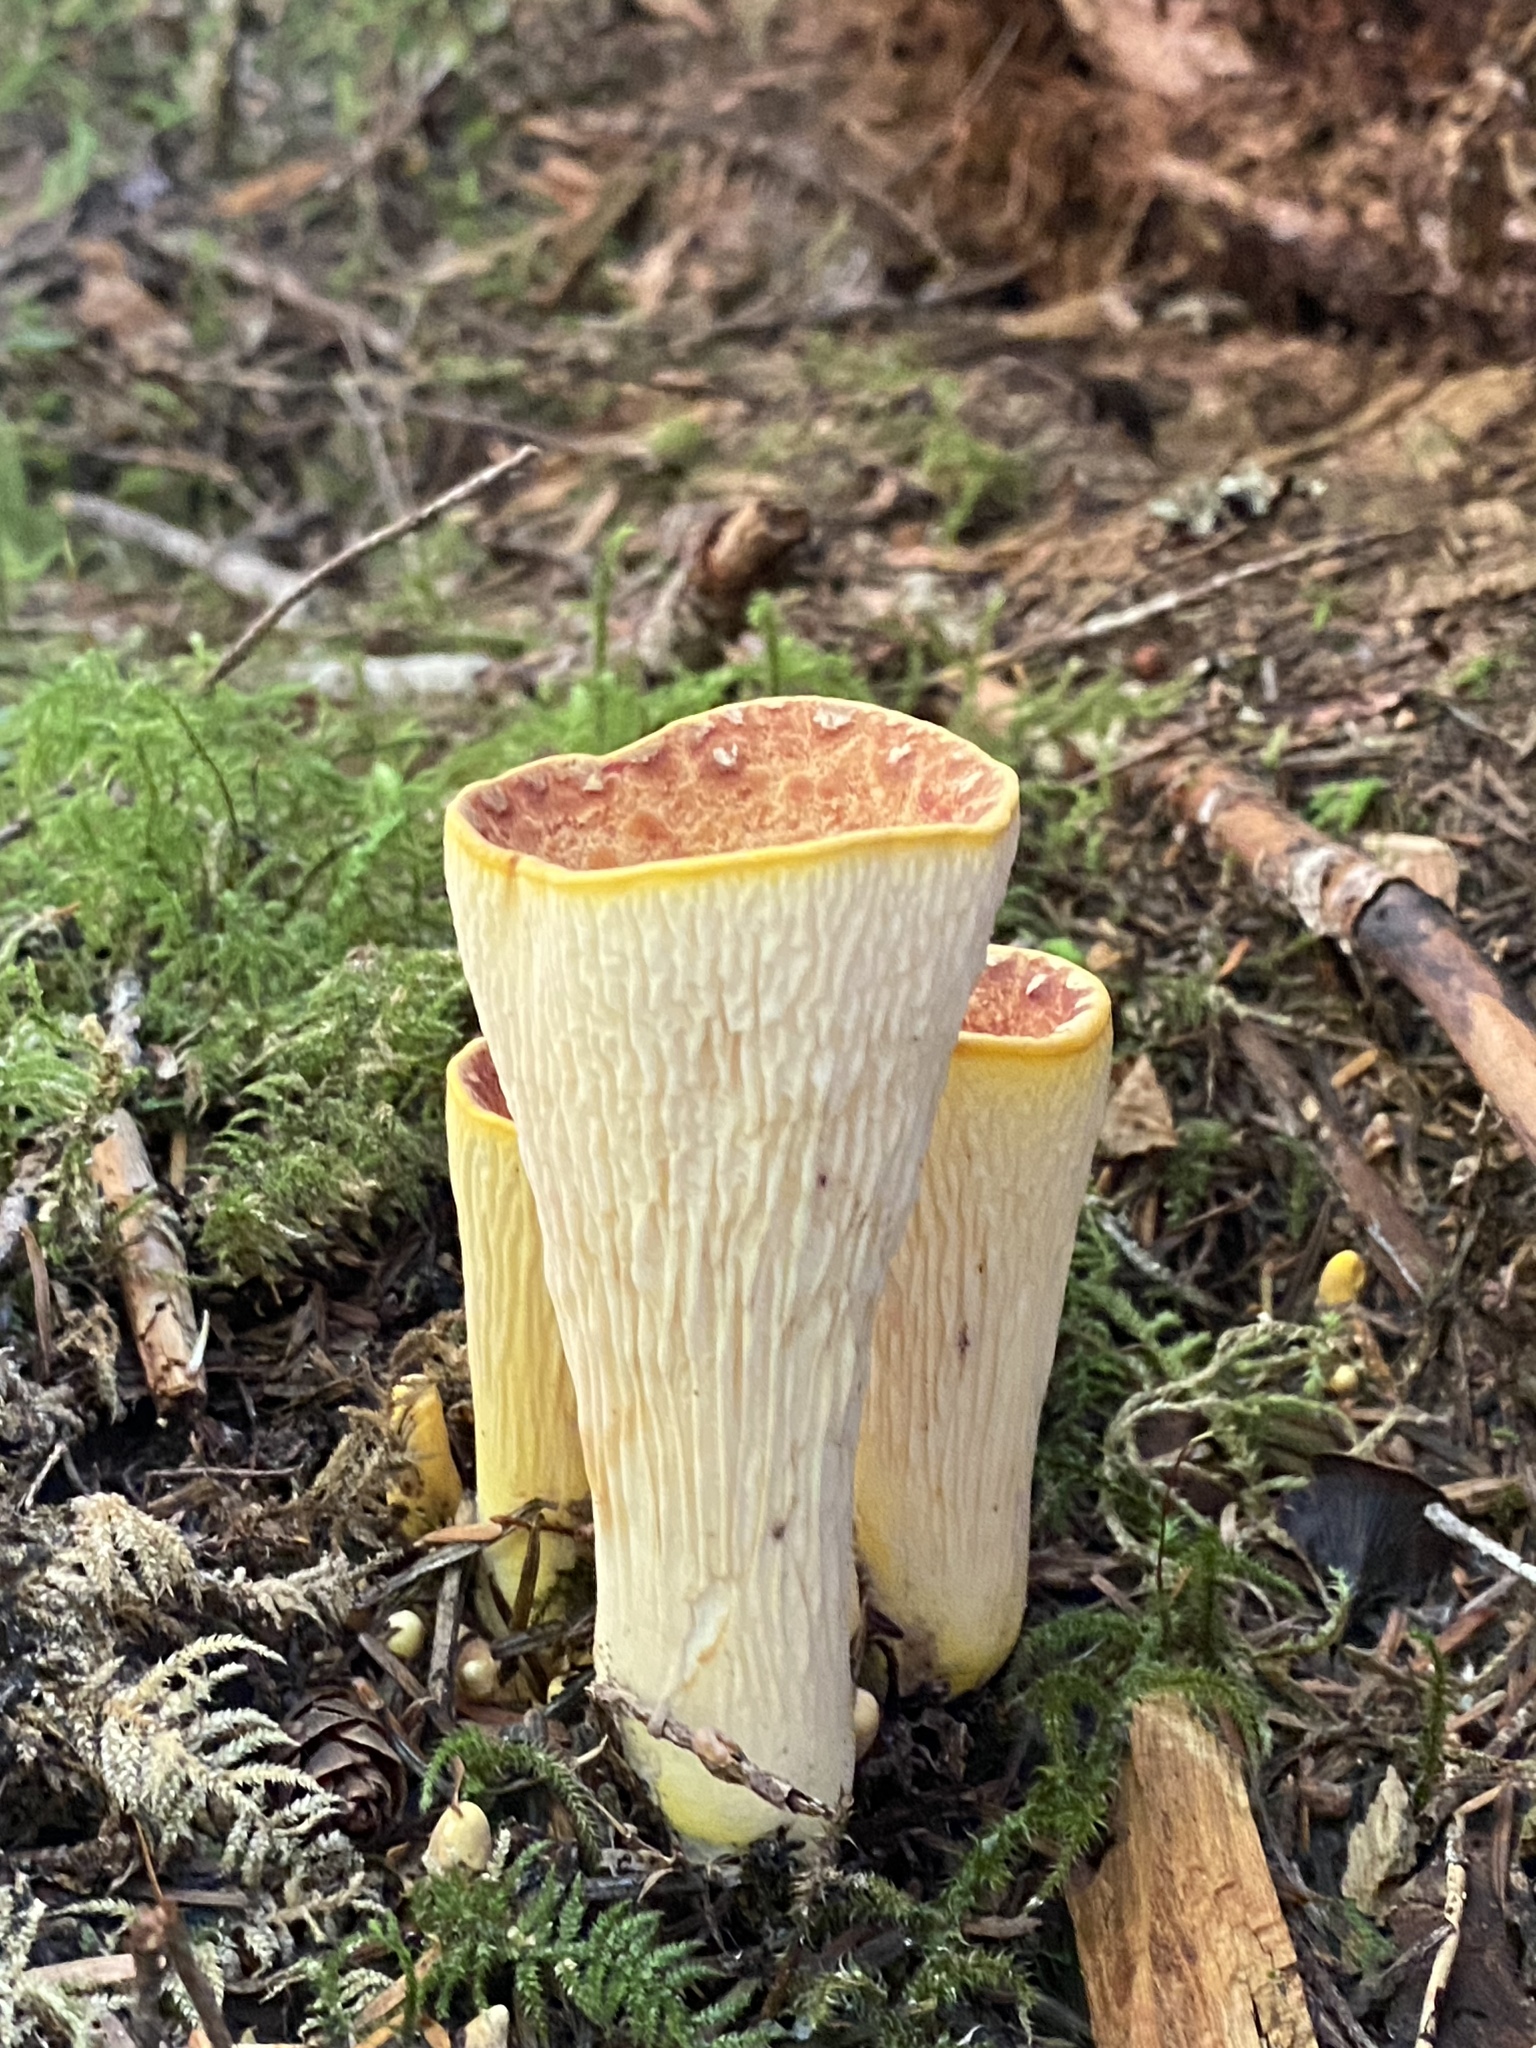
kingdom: Fungi
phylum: Basidiomycota
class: Agaricomycetes
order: Gomphales
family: Gomphaceae
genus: Turbinellus
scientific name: Turbinellus floccosus
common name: Scaly chanterelle
